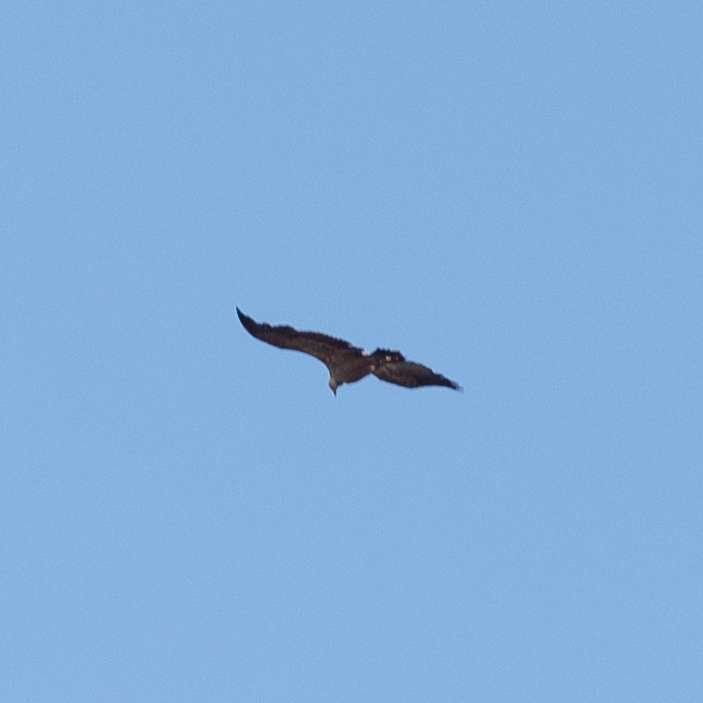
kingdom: Animalia
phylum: Chordata
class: Aves
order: Accipitriformes
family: Accipitridae
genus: Gyps
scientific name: Gyps fulvus
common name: Griffon vulture
